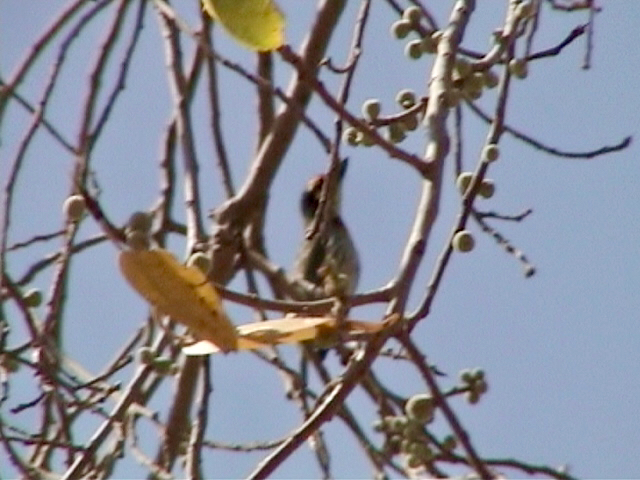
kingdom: Animalia
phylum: Chordata
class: Aves
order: Piciformes
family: Megalaimidae
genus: Psilopogon
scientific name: Psilopogon haemacephalus
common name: Coppersmith barbet
